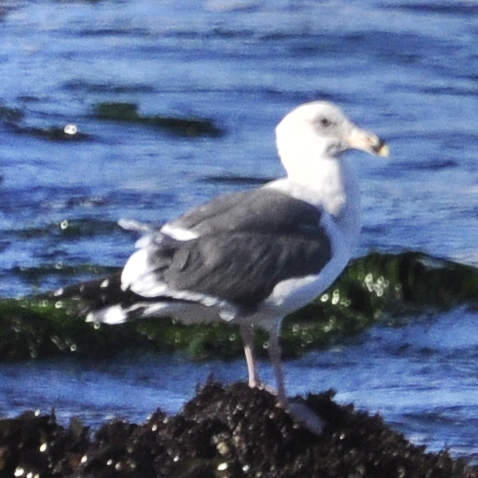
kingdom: Animalia
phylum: Chordata
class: Aves
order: Charadriiformes
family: Laridae
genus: Larus
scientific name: Larus occidentalis
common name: Western gull
